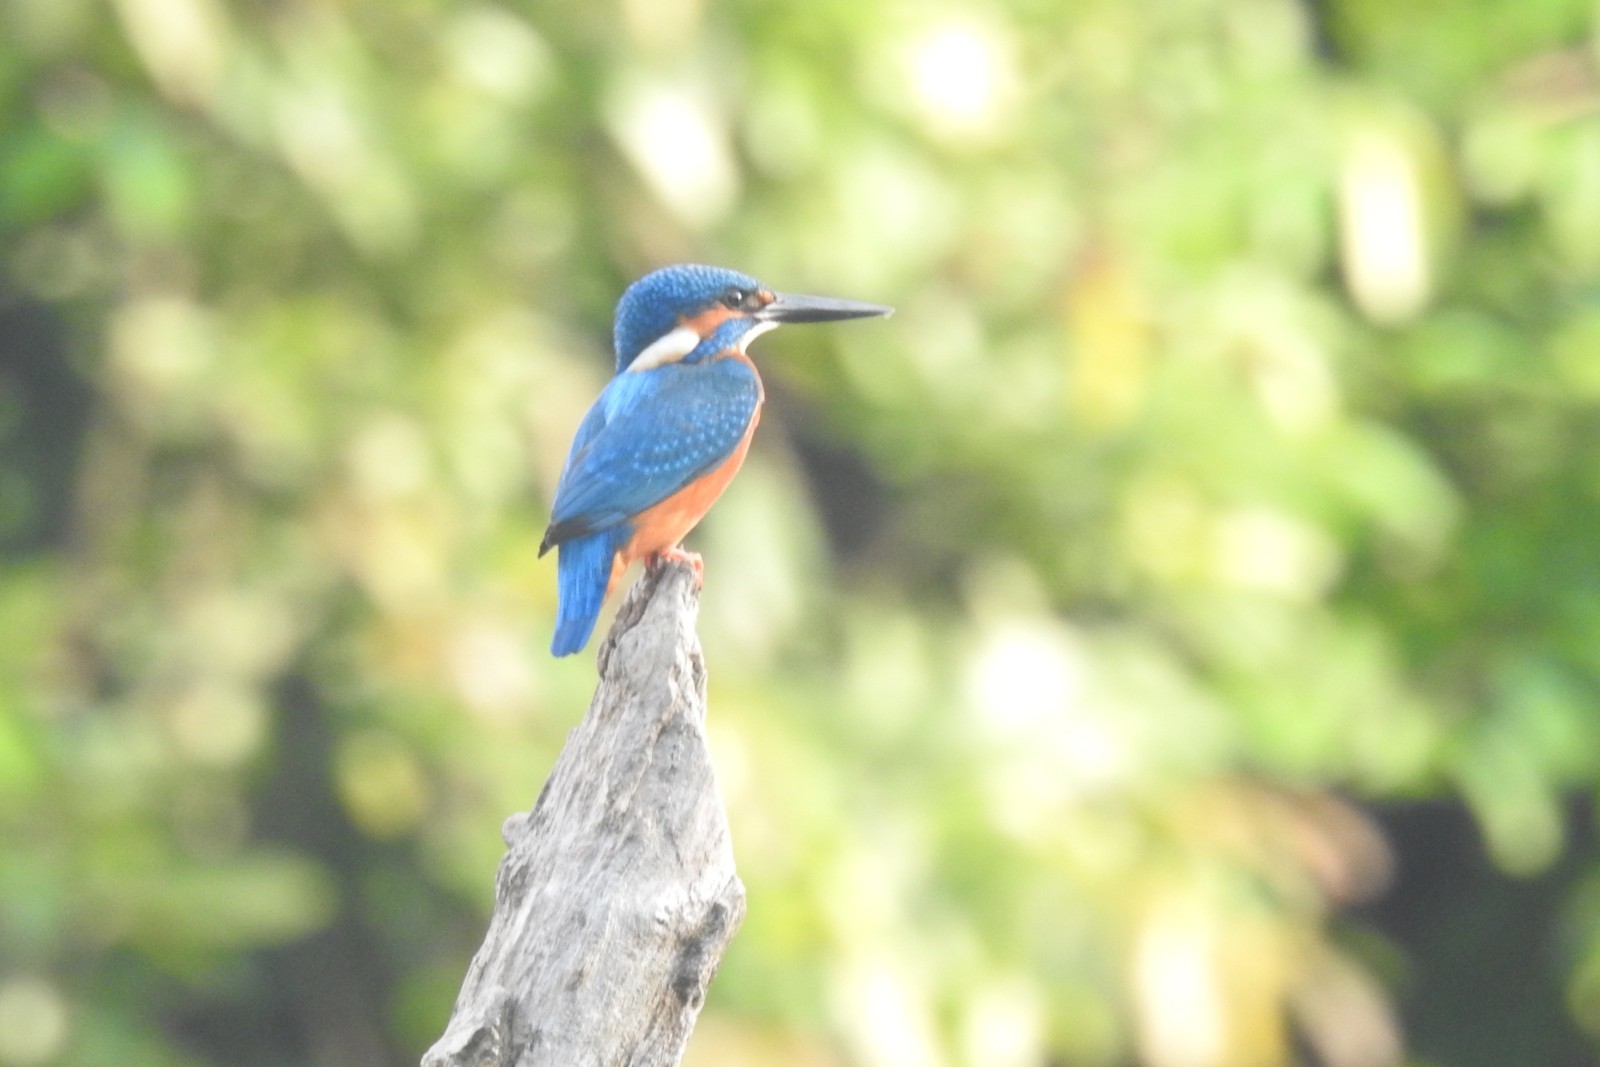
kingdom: Animalia
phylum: Chordata
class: Aves
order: Coraciiformes
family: Alcedinidae
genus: Alcedo
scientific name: Alcedo atthis
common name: Common kingfisher
